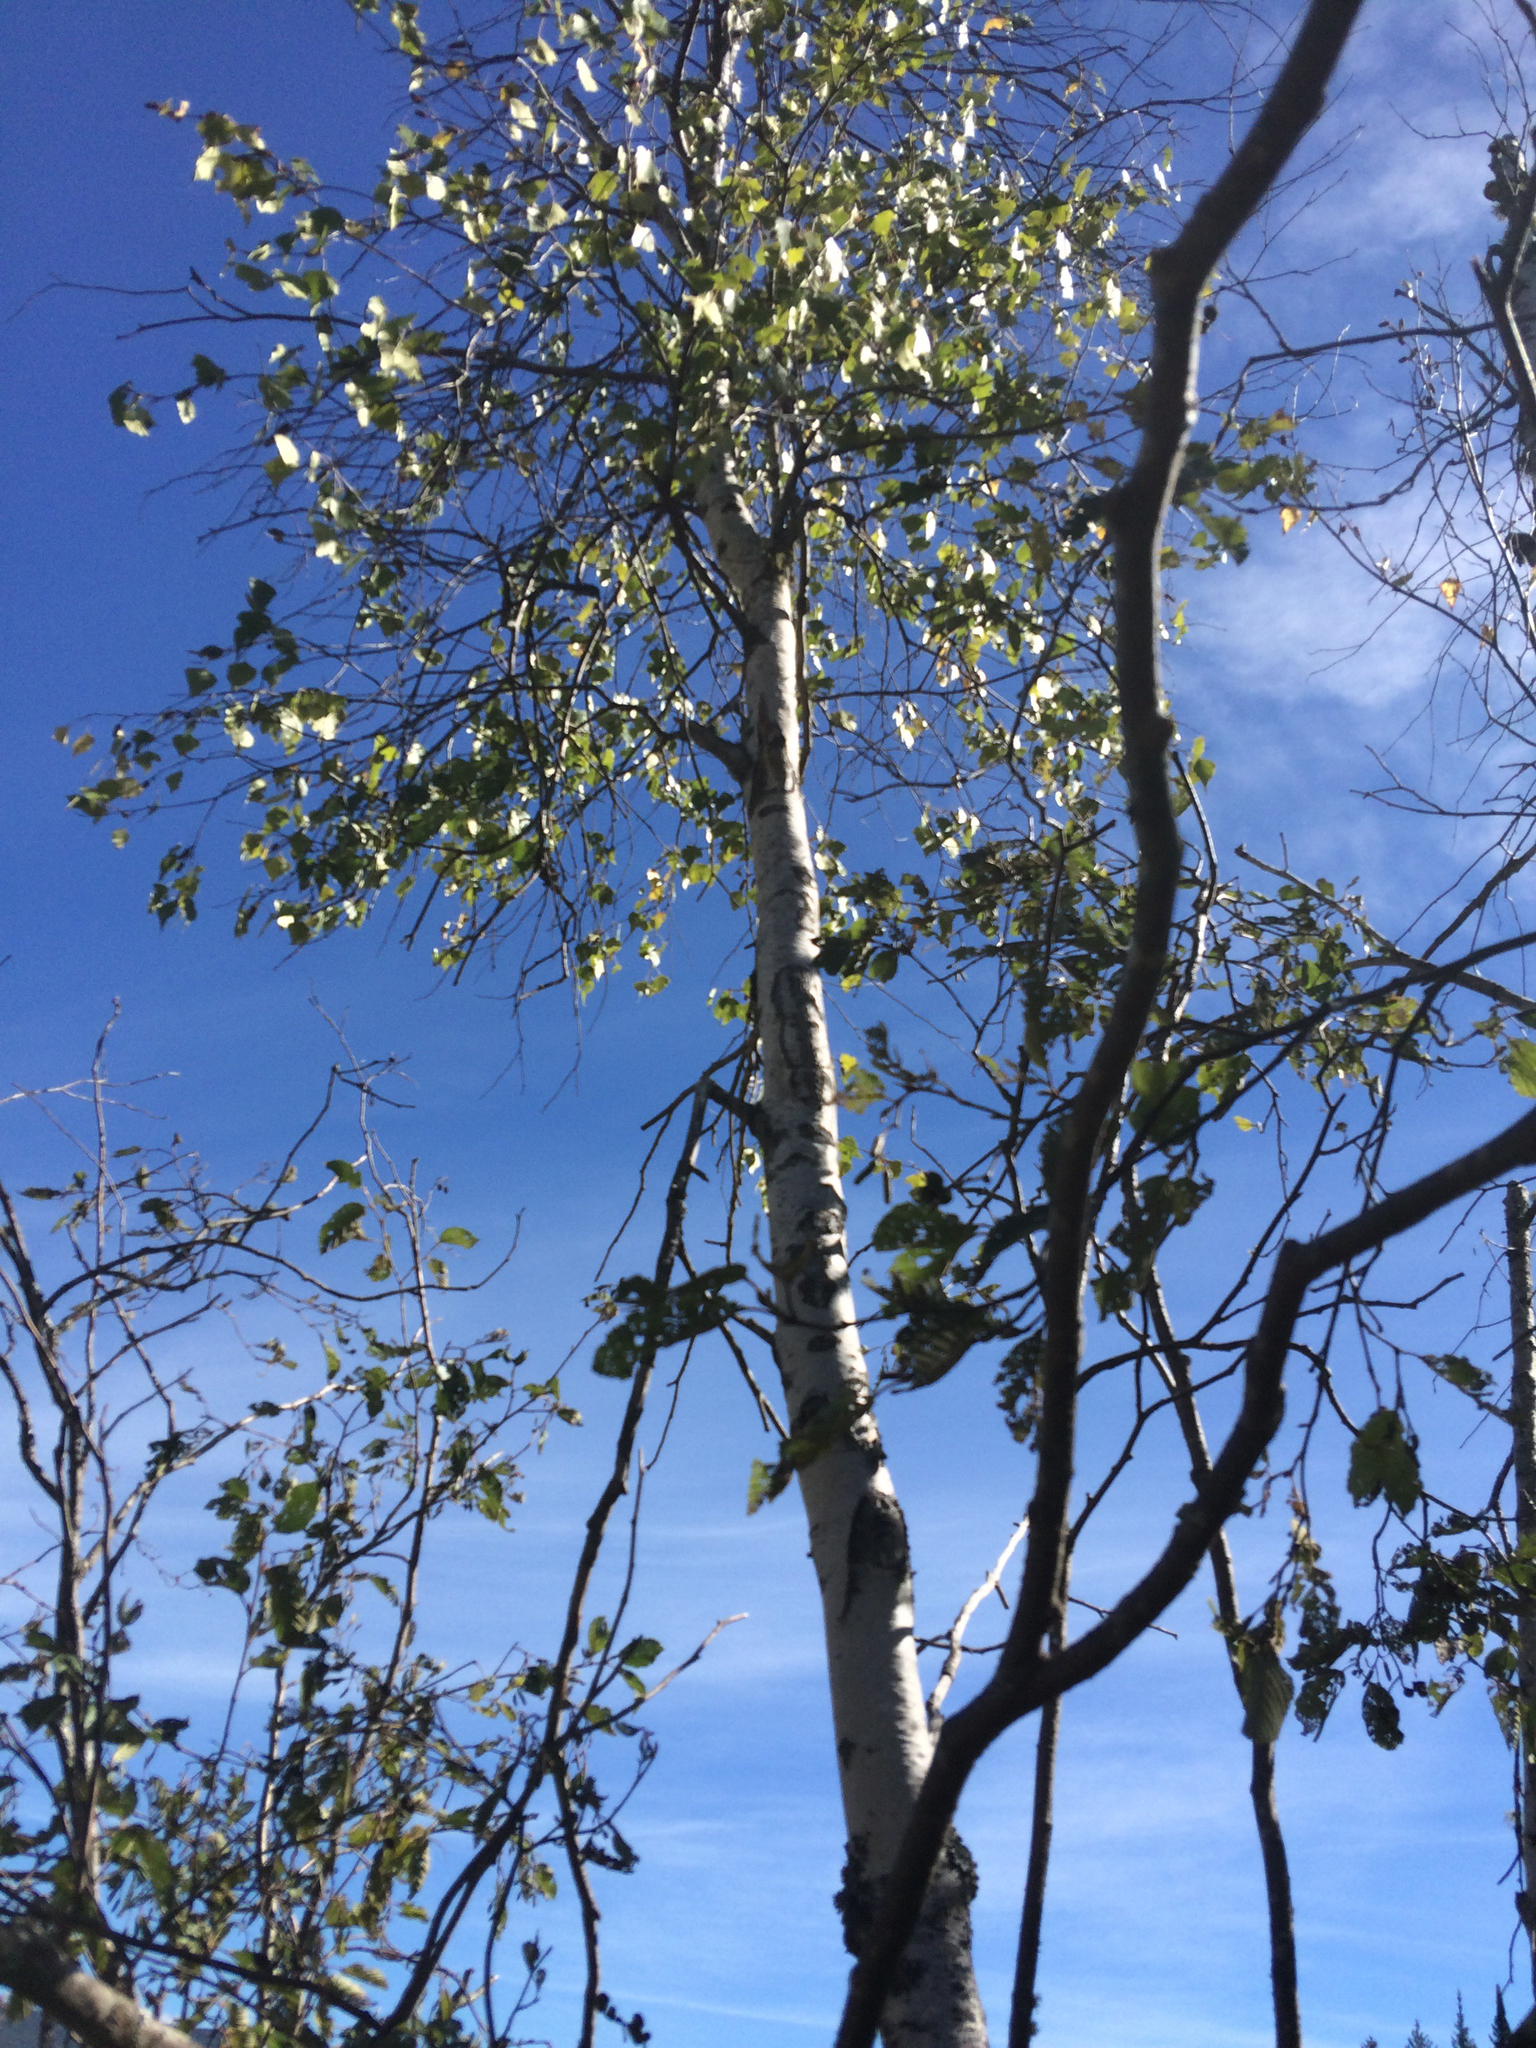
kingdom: Plantae
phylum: Tracheophyta
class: Magnoliopsida
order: Fagales
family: Betulaceae
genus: Betula
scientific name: Betula populifolia
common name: Fire birch
